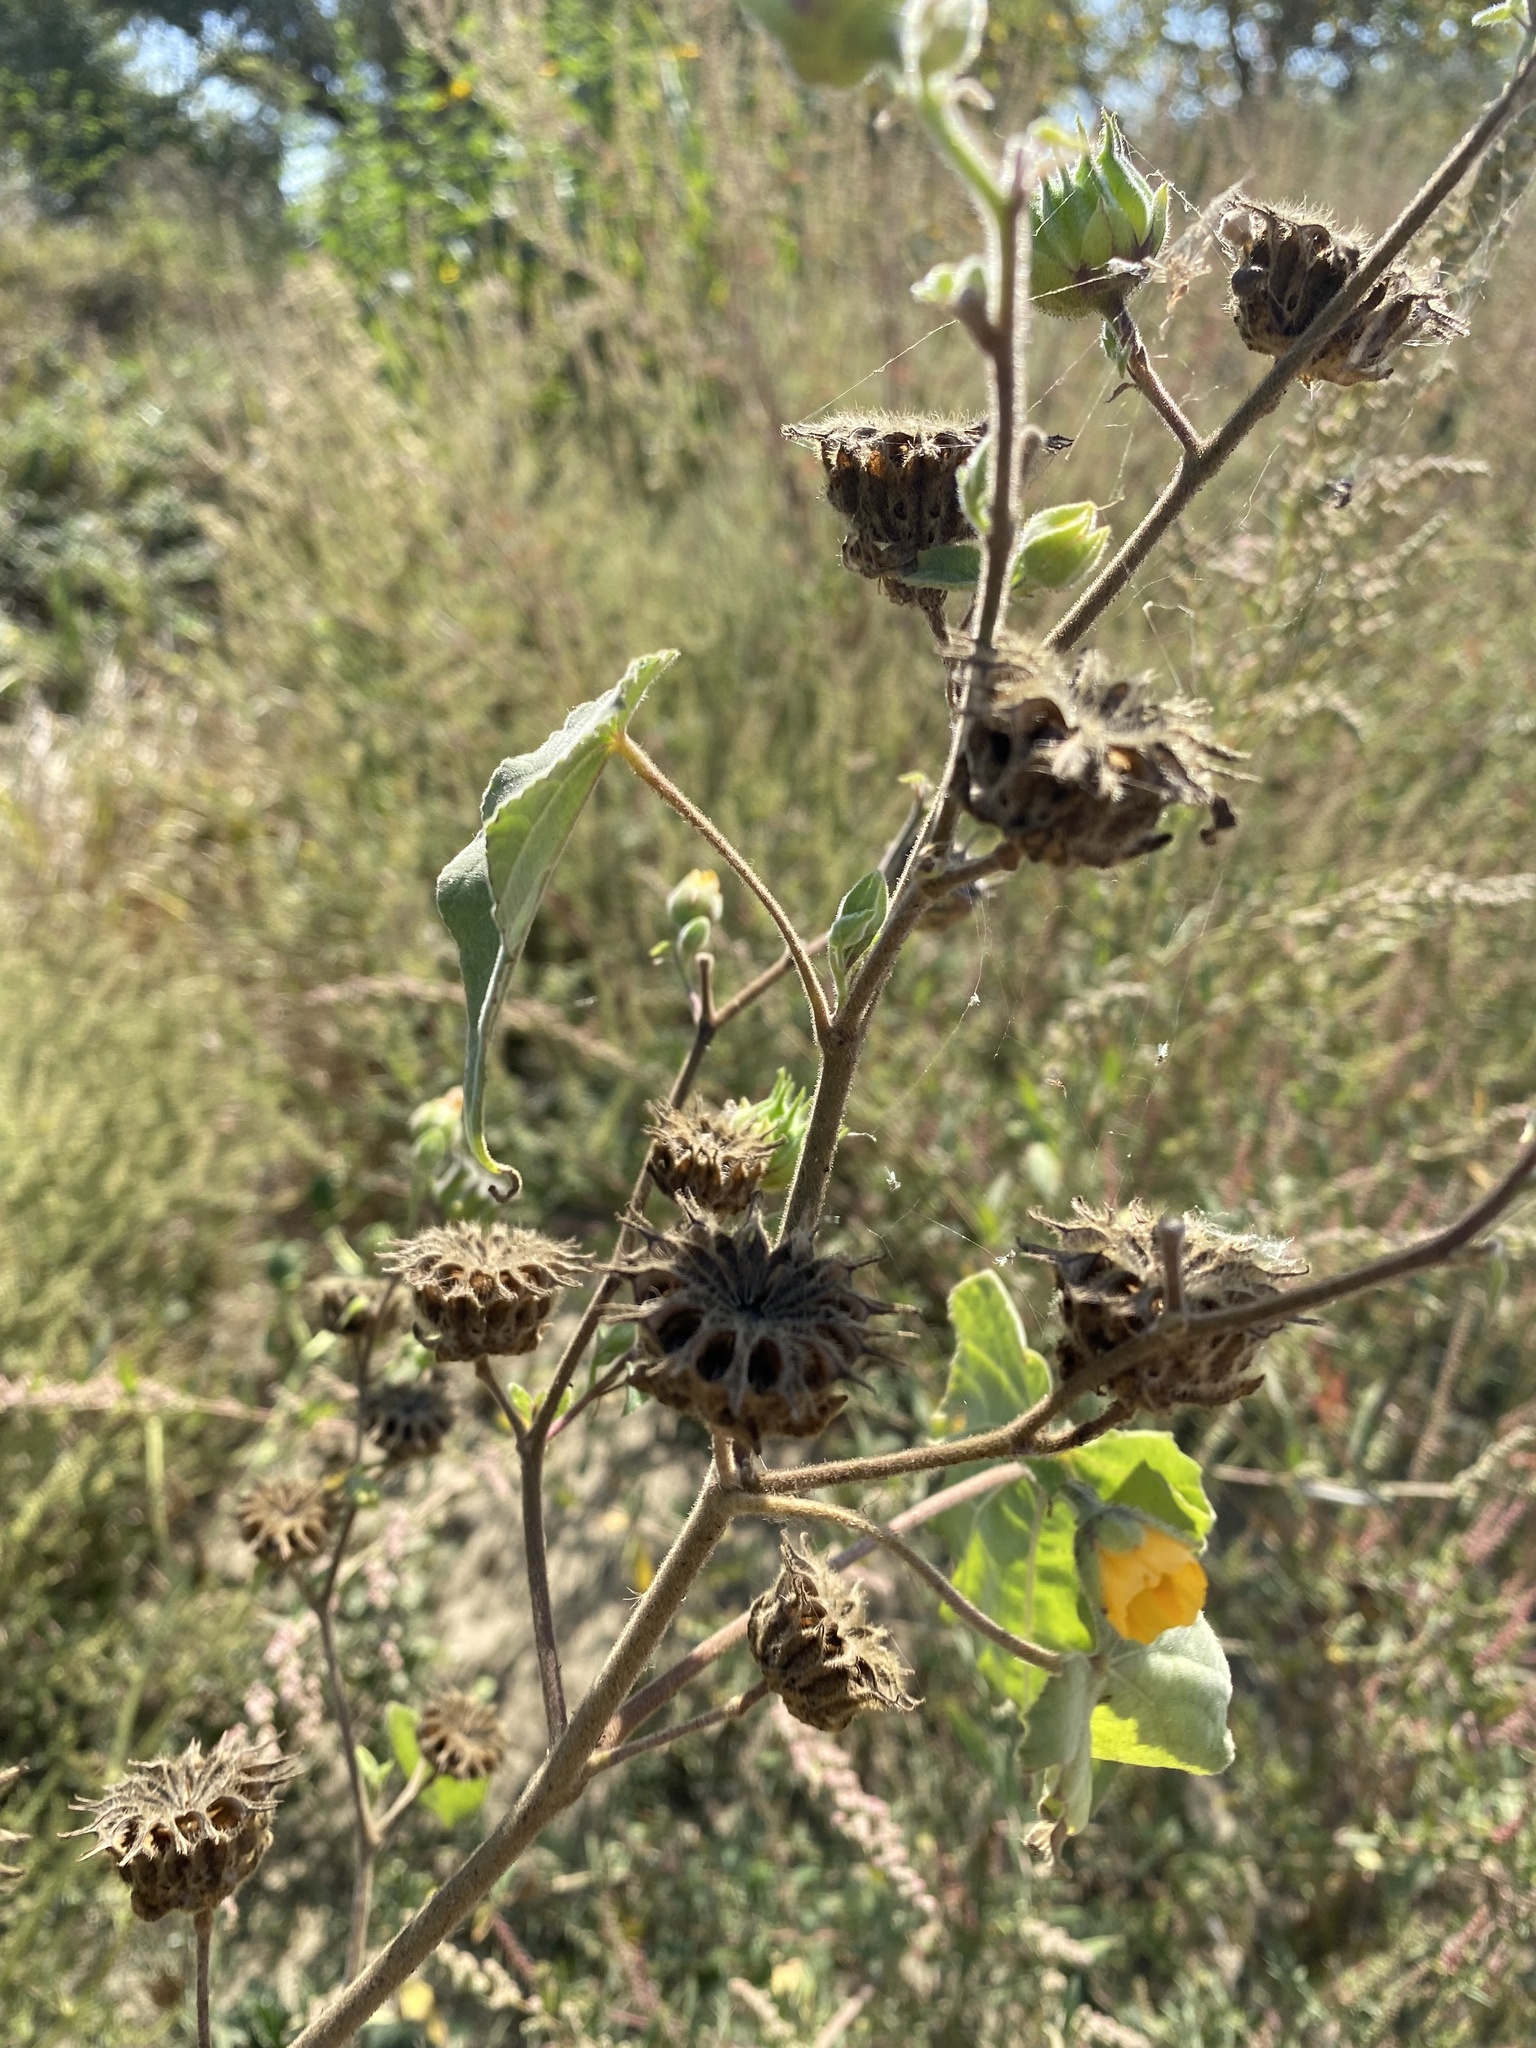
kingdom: Plantae
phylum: Tracheophyta
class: Magnoliopsida
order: Malvales
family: Malvaceae
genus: Abutilon
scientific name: Abutilon theophrasti
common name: Velvetleaf
